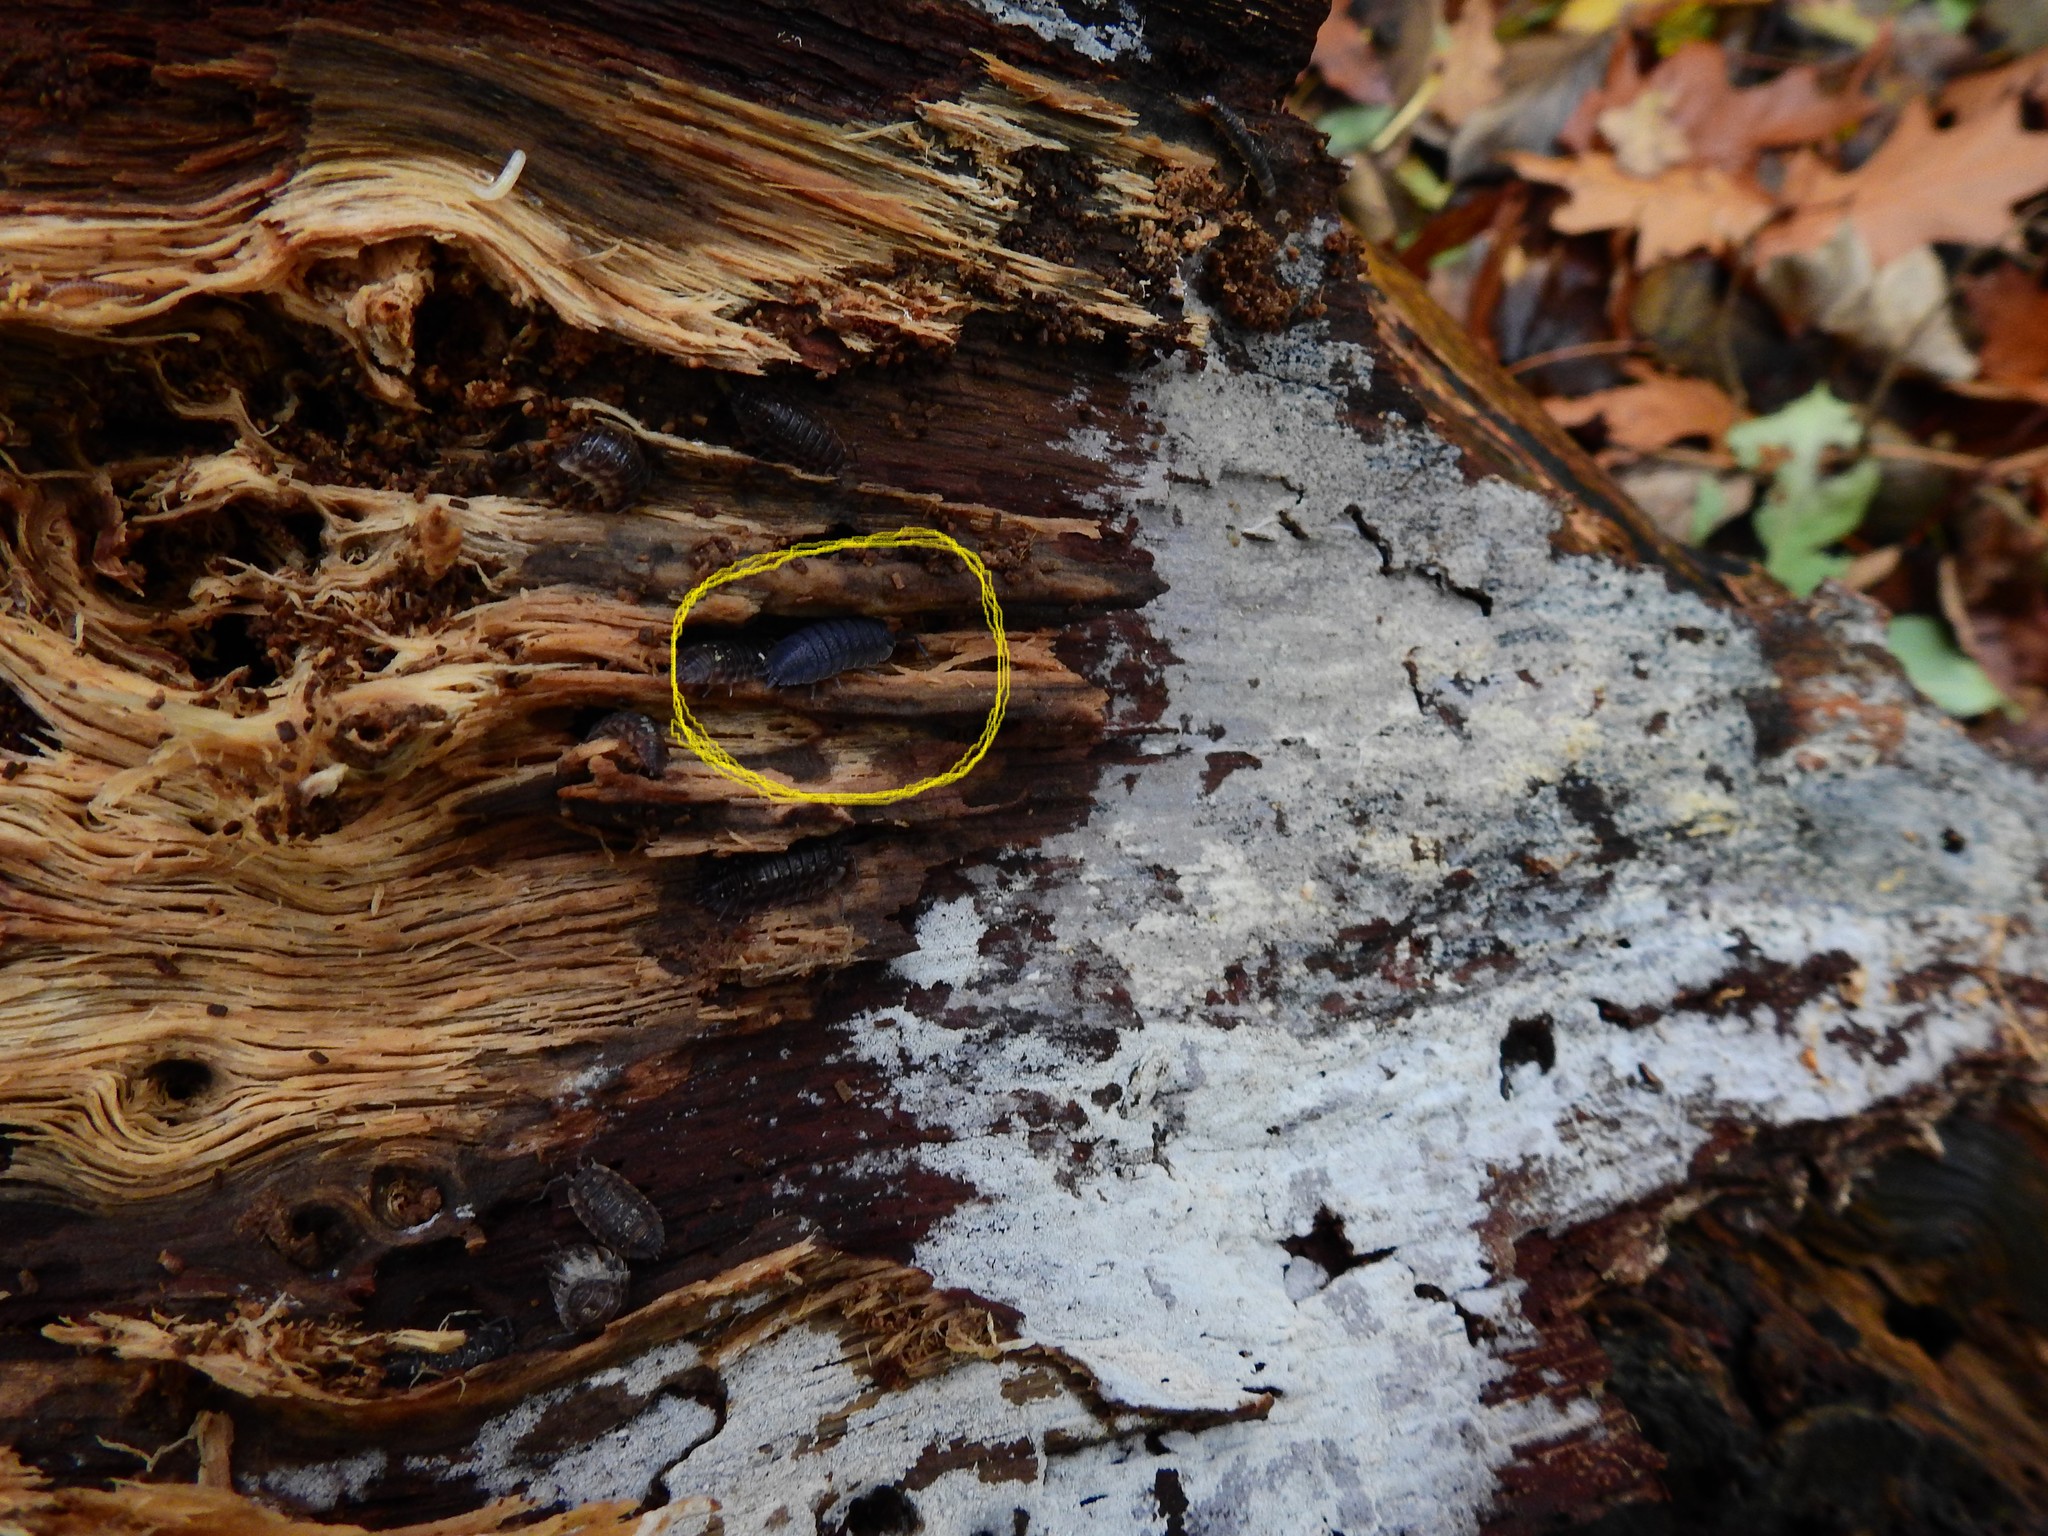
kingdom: Animalia
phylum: Arthropoda
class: Malacostraca
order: Isopoda
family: Porcellionidae
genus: Porcellio
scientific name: Porcellio scaber
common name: Common rough woodlouse
